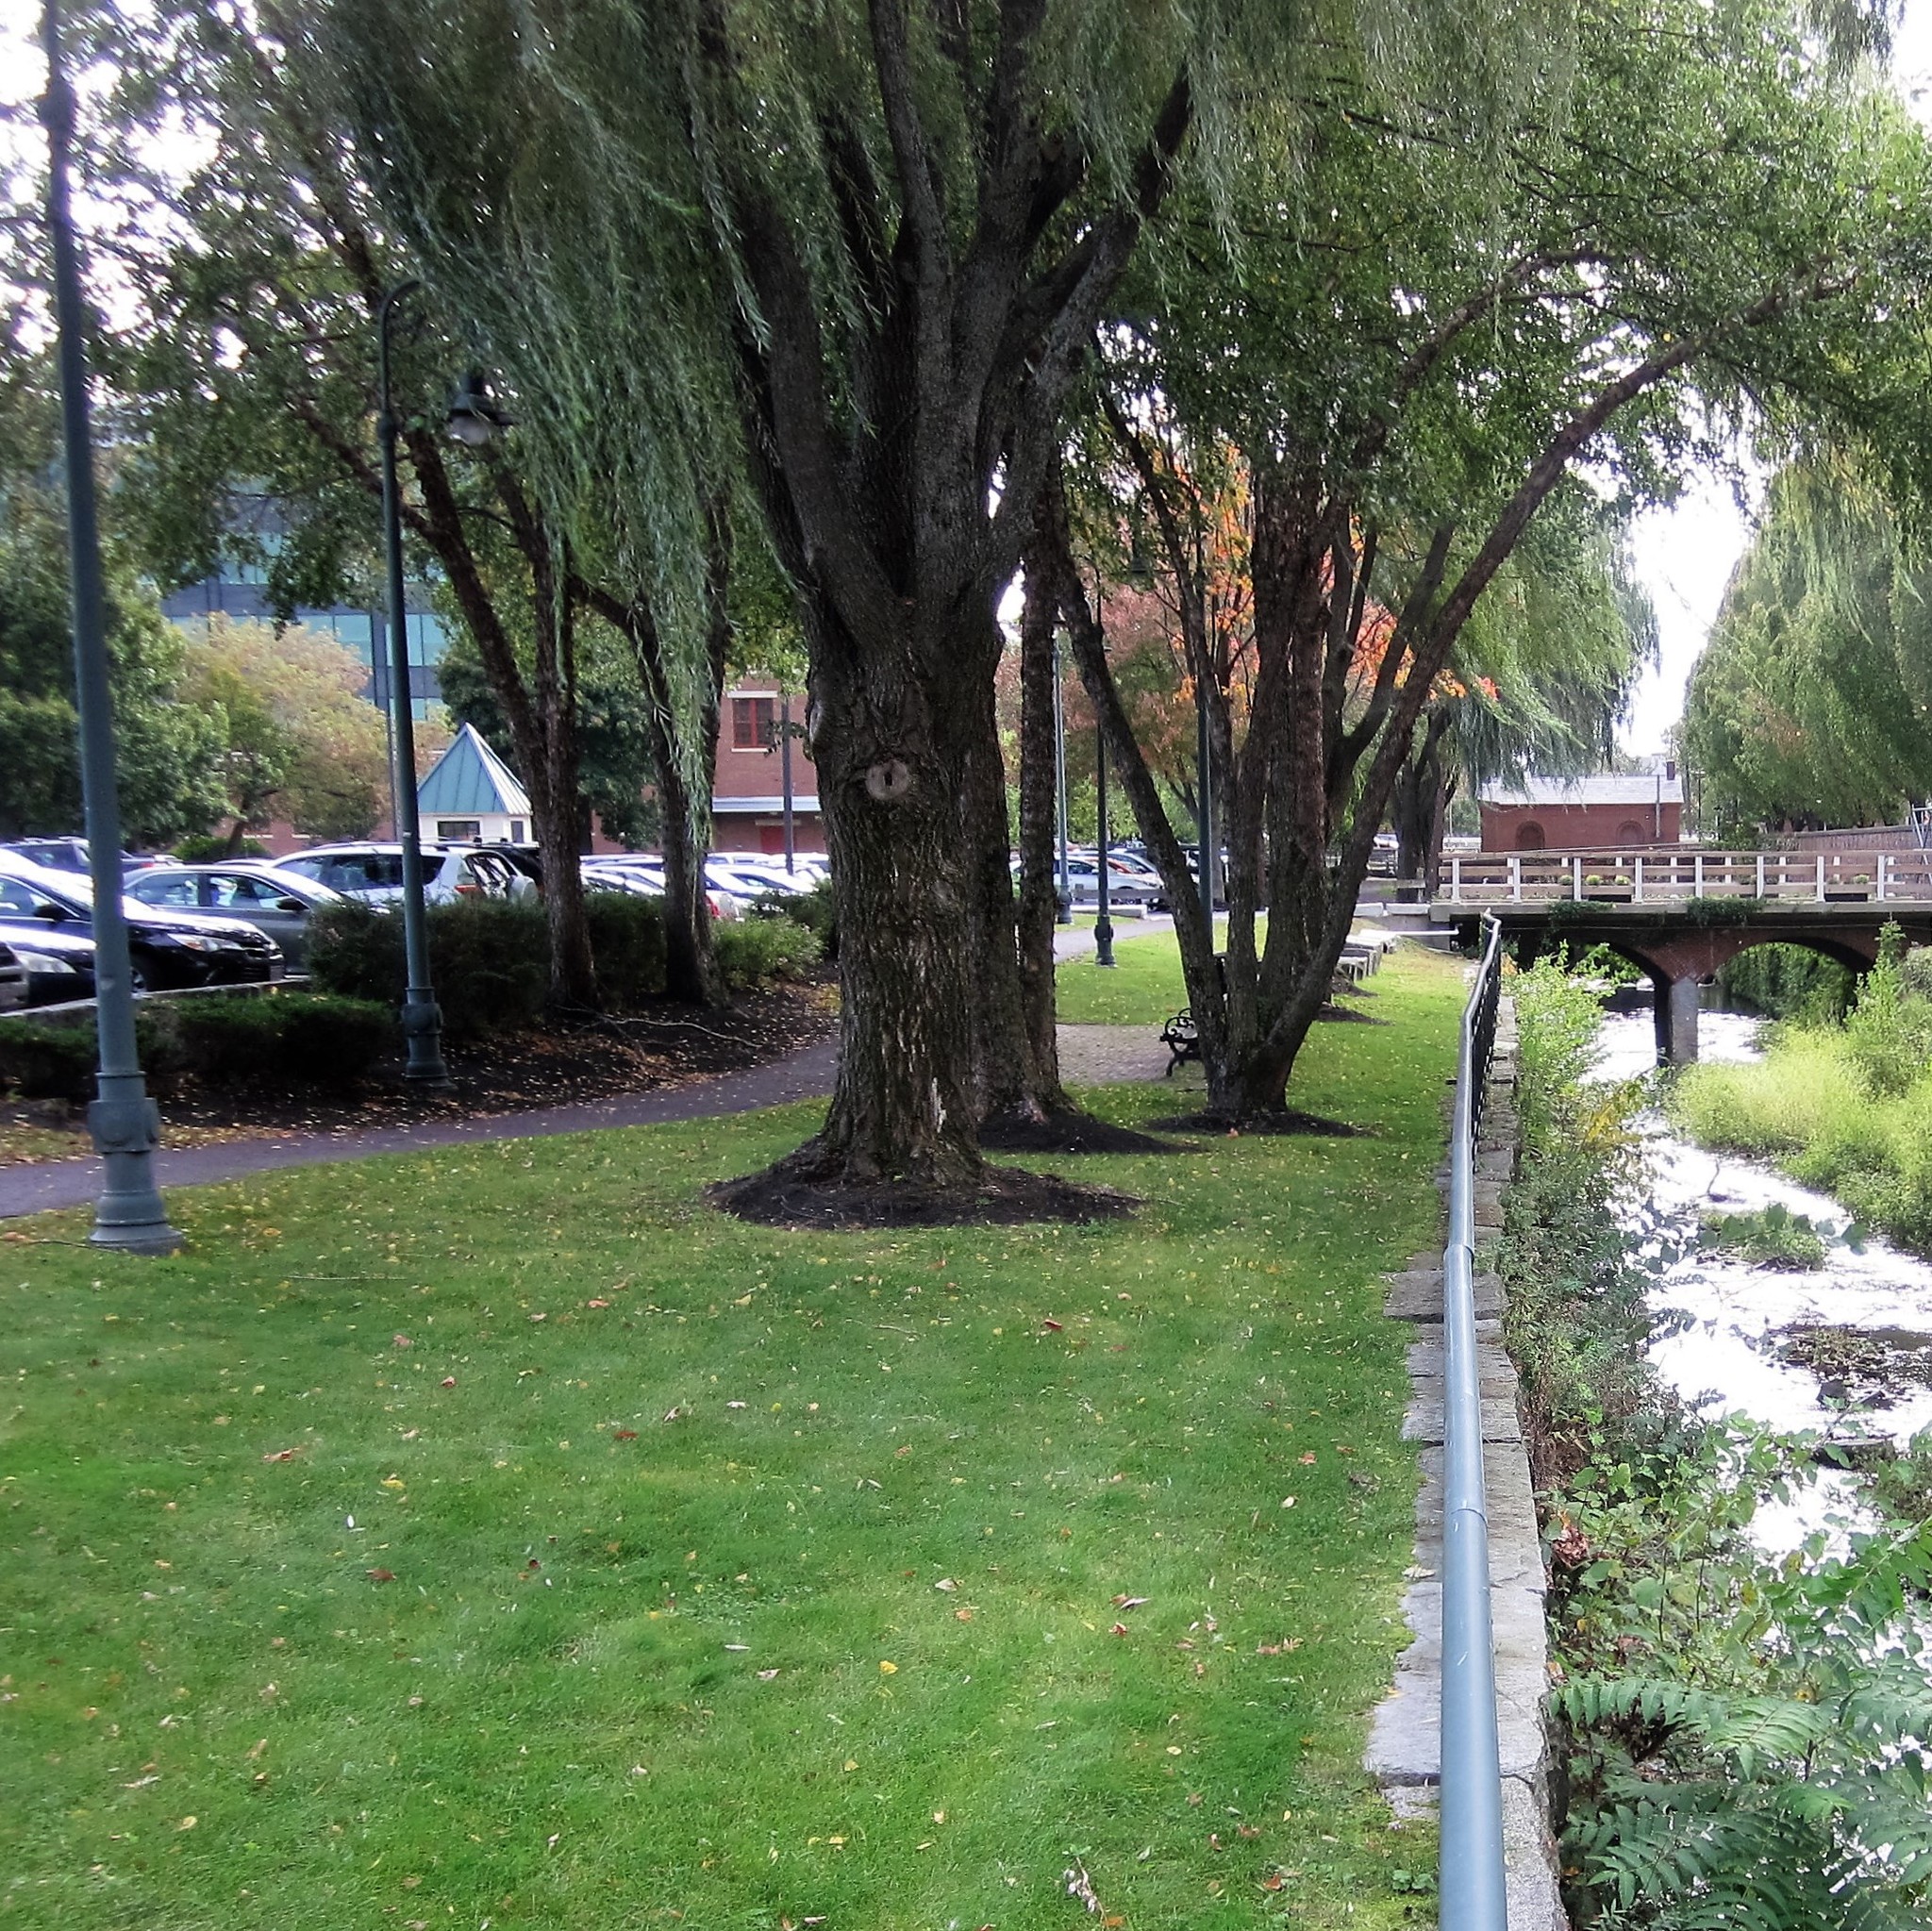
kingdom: Plantae
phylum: Tracheophyta
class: Magnoliopsida
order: Malpighiales
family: Salicaceae
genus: Salix
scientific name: Salix pendulina
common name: Wisconsin weeping willow
